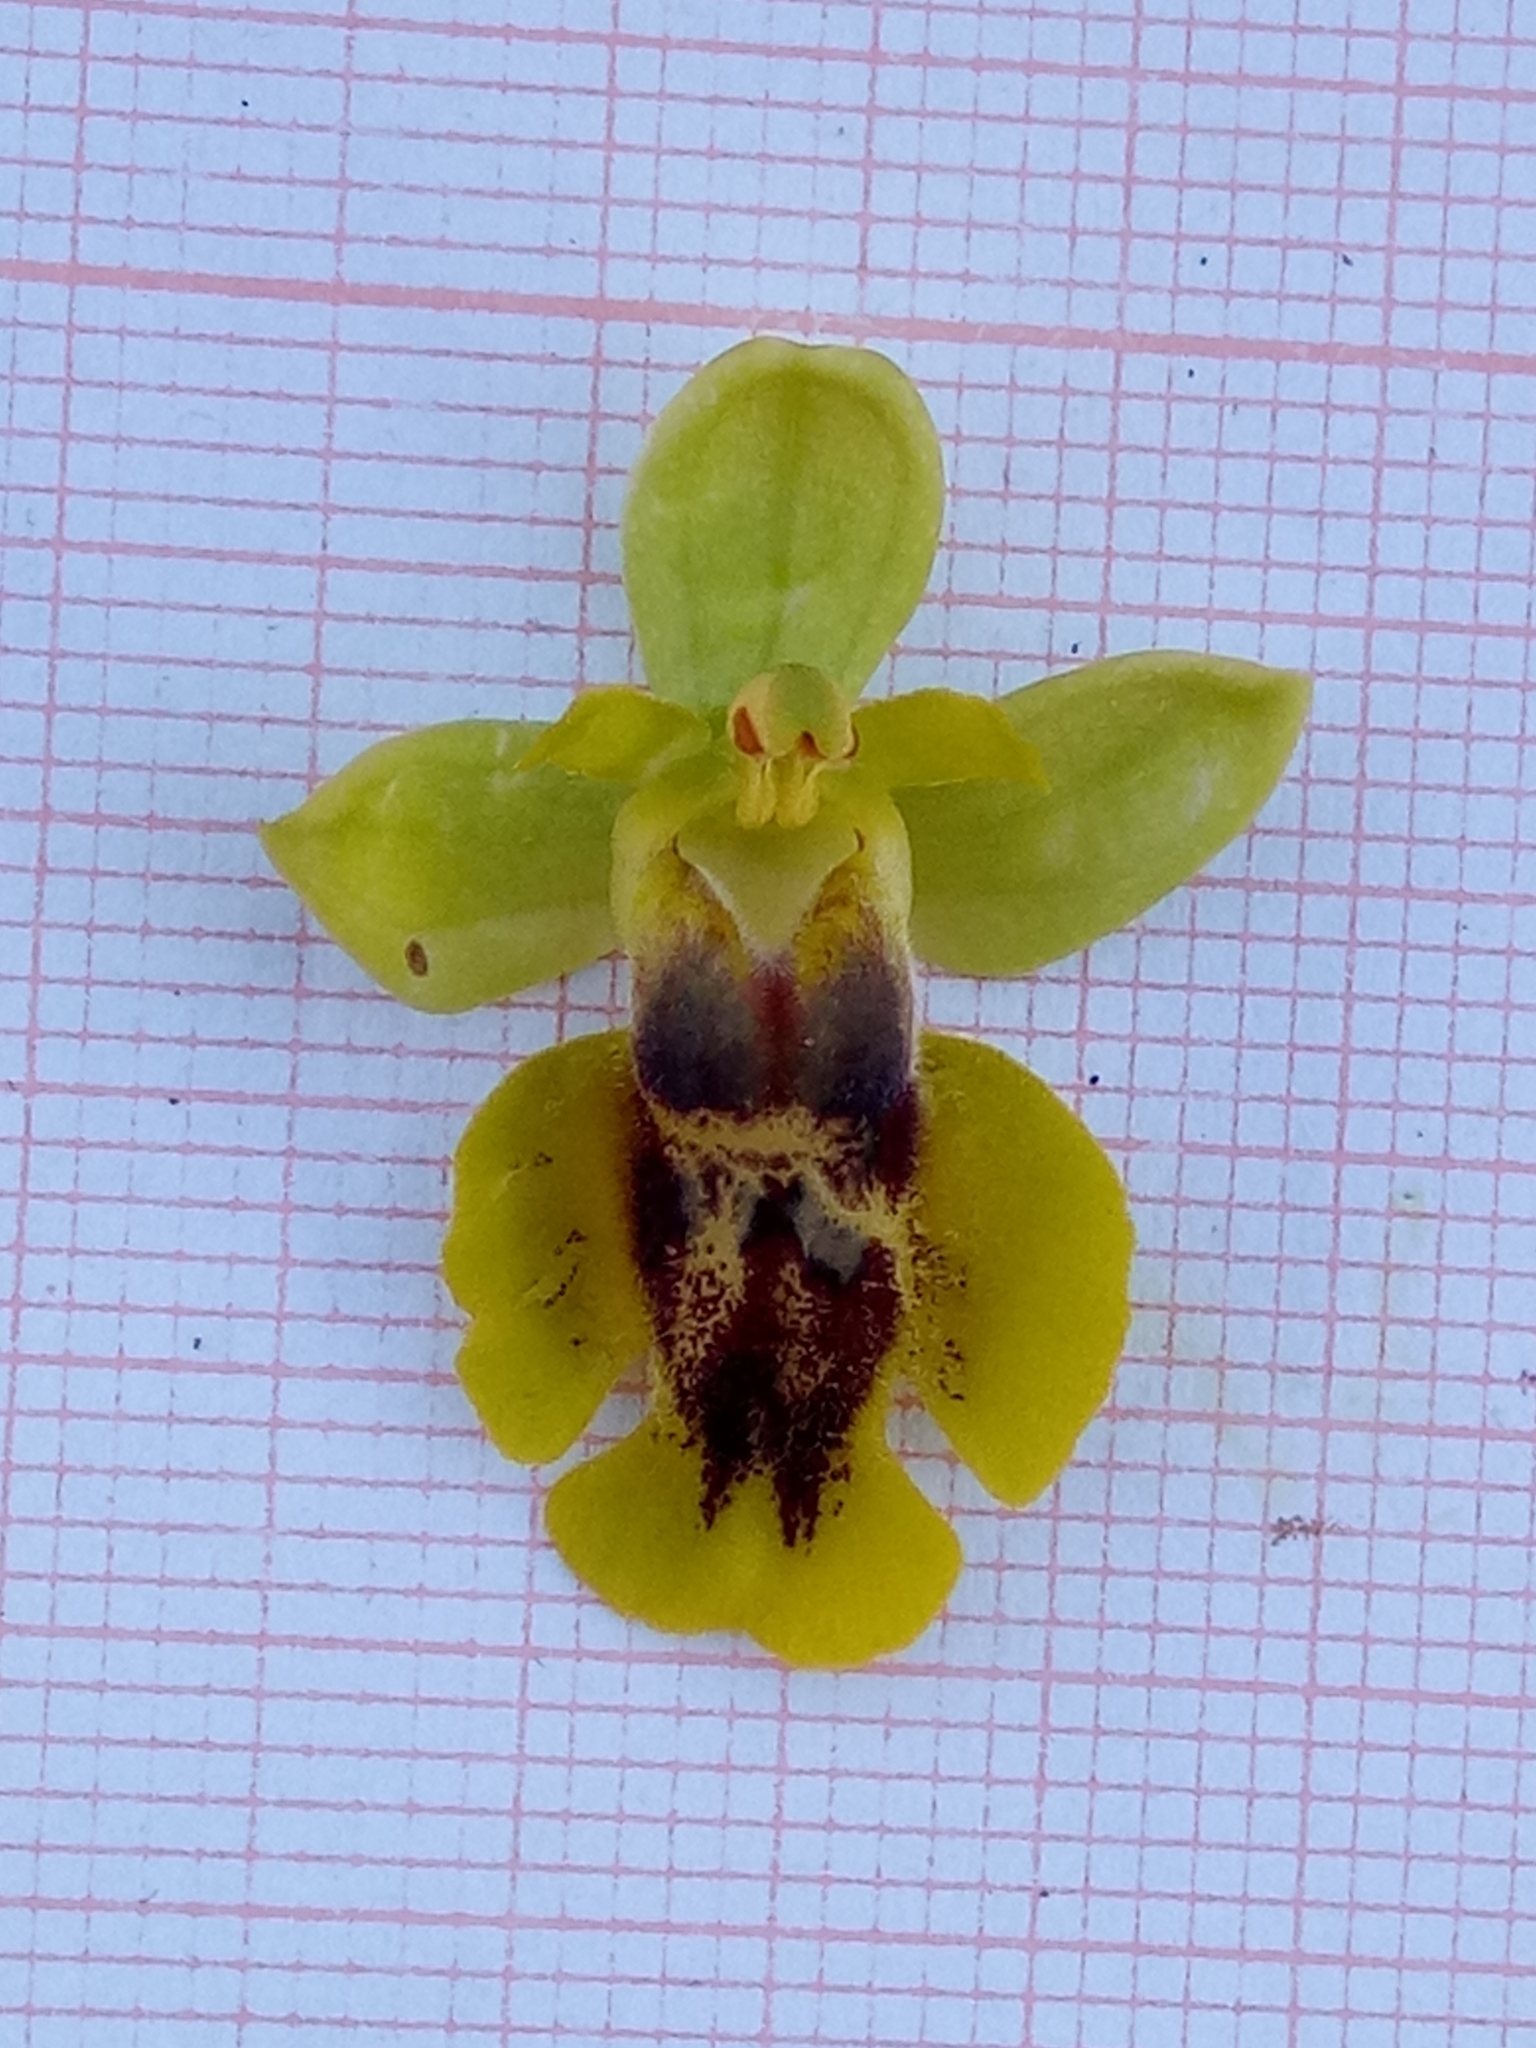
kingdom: Plantae
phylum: Tracheophyta
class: Liliopsida
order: Asparagales
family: Orchidaceae
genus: Ophrys
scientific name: Ophrys lutea
